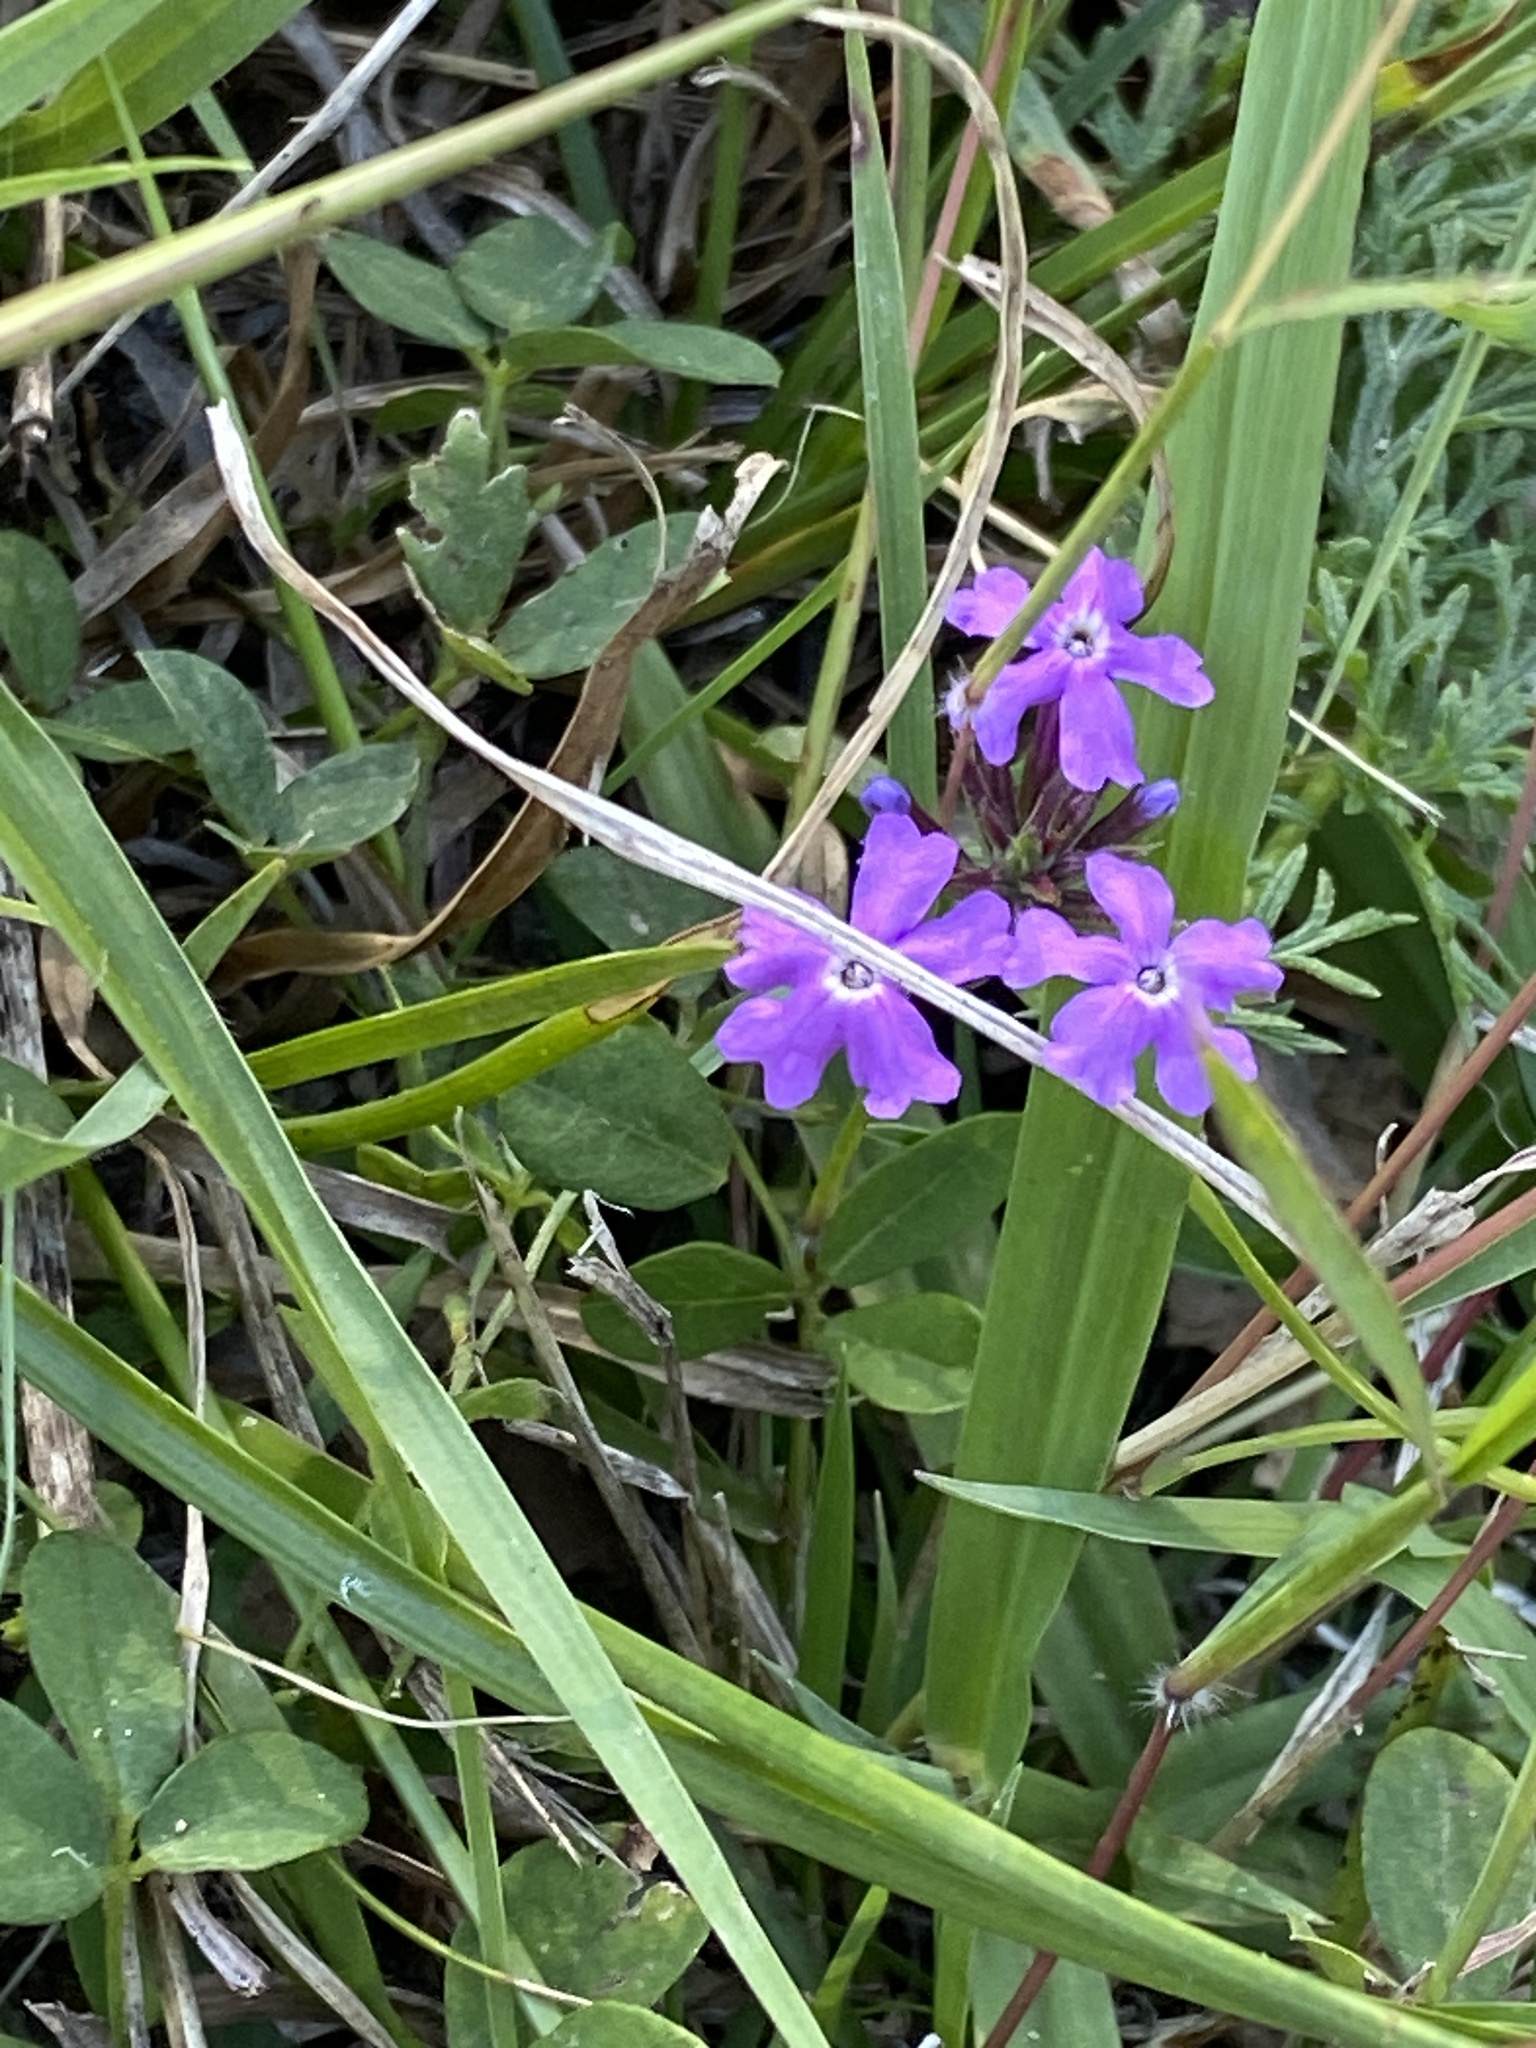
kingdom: Plantae
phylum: Tracheophyta
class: Magnoliopsida
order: Lamiales
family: Verbenaceae
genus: Verbena
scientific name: Verbena aristigera
